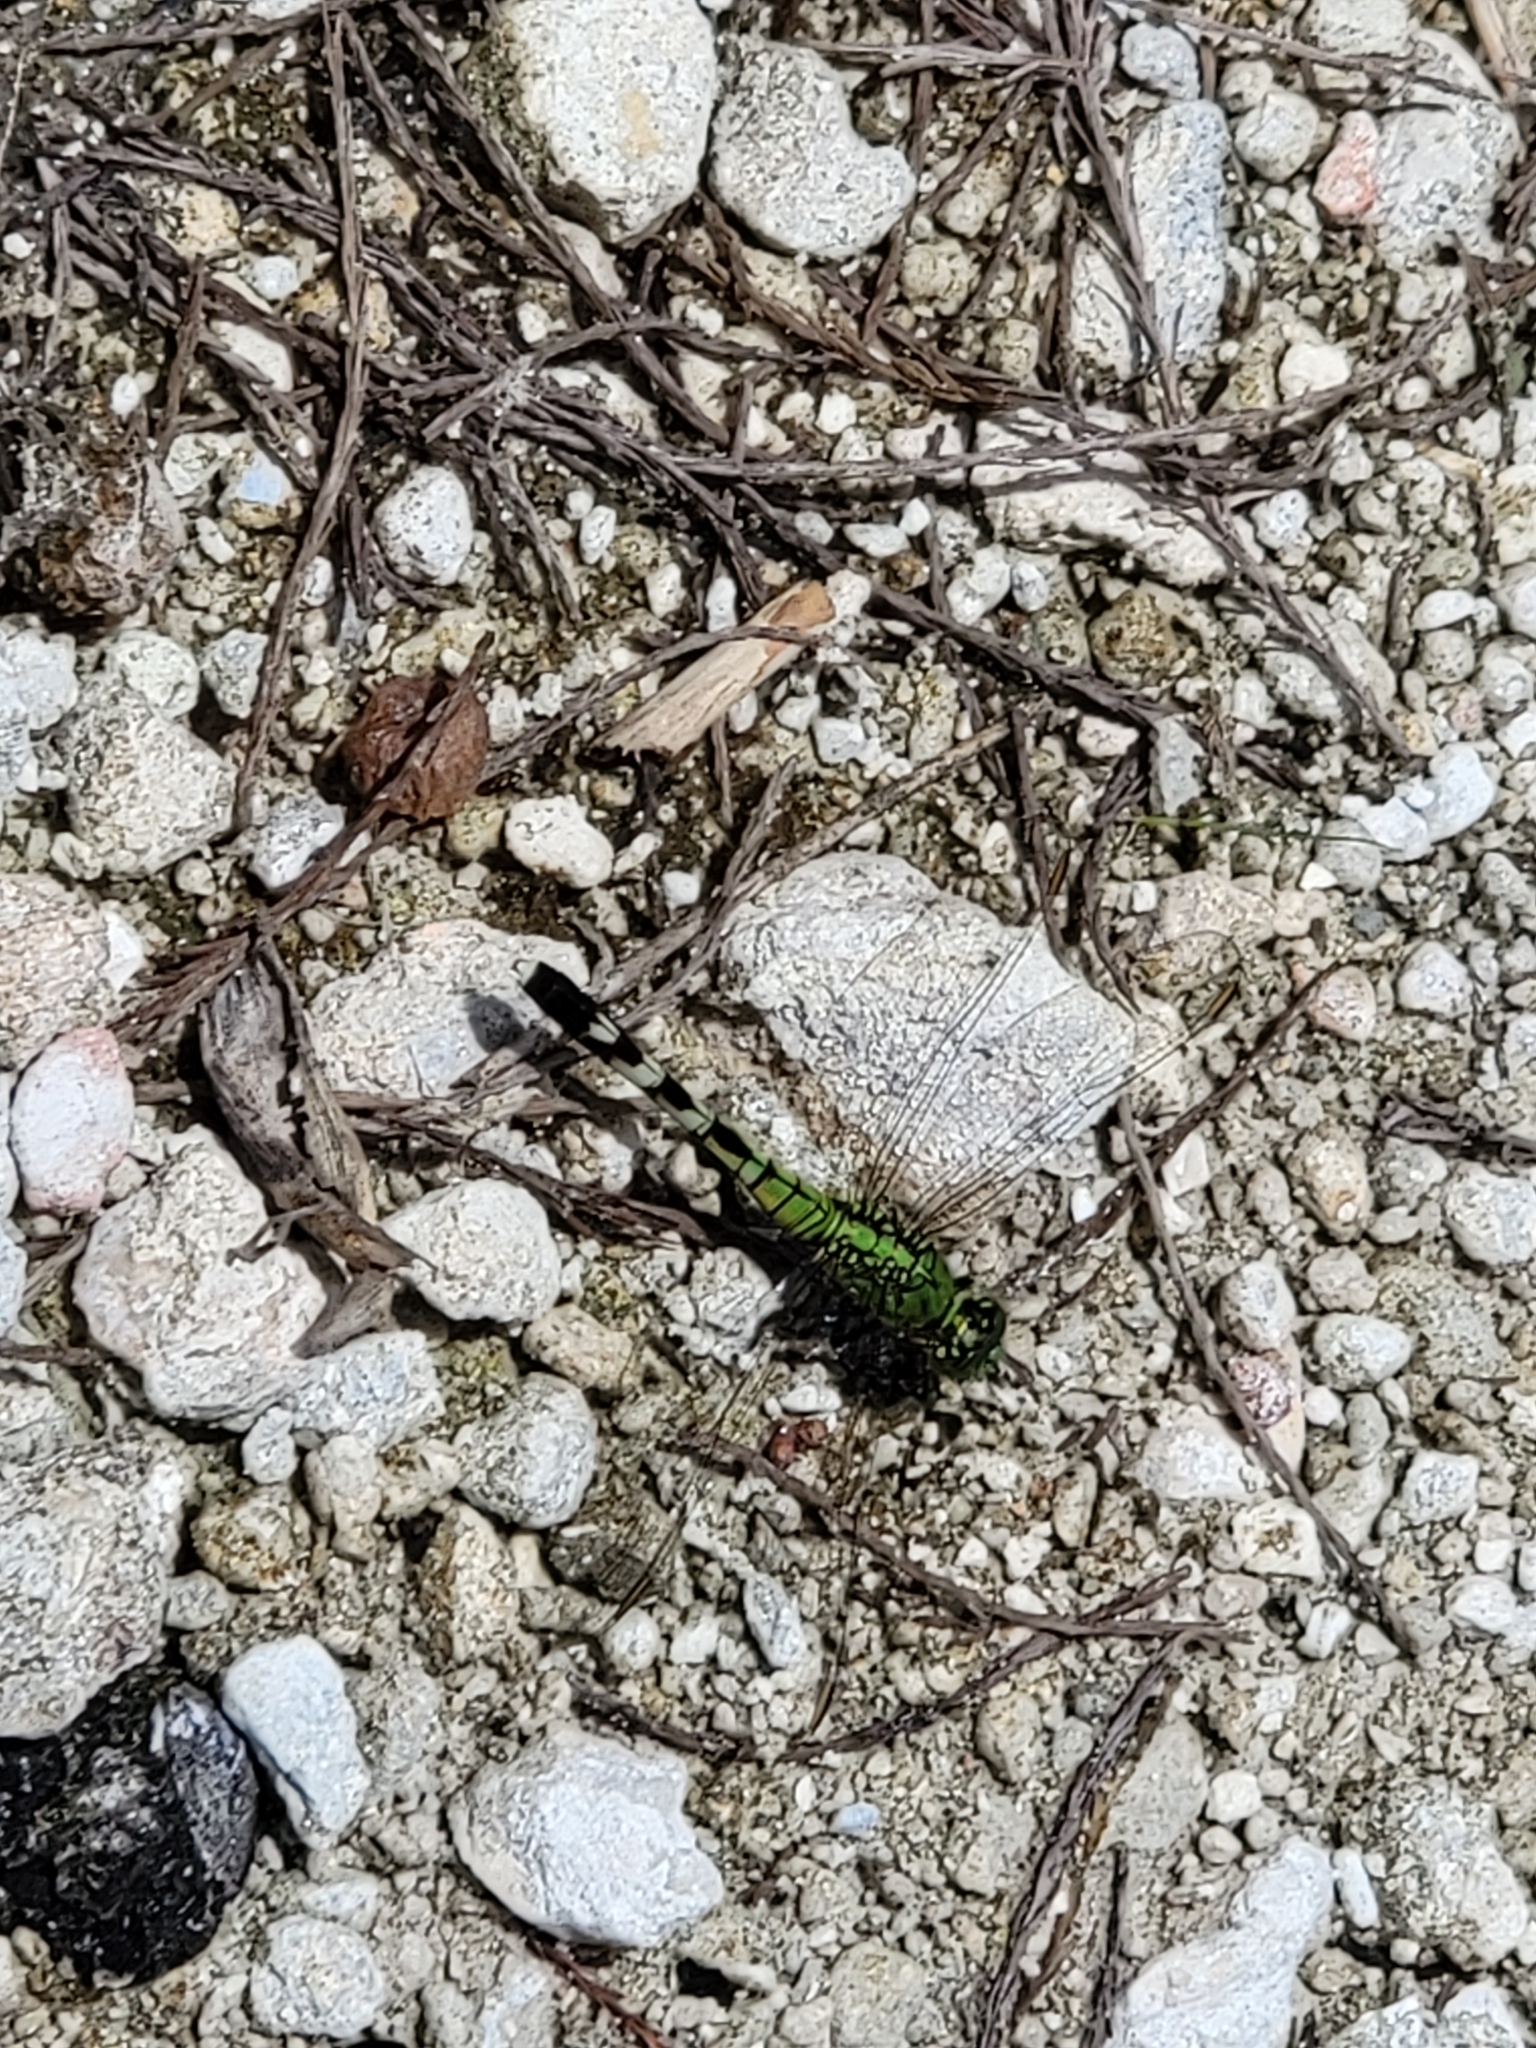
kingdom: Animalia
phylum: Arthropoda
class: Insecta
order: Odonata
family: Libellulidae
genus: Erythemis
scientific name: Erythemis simplicicollis
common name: Eastern pondhawk
